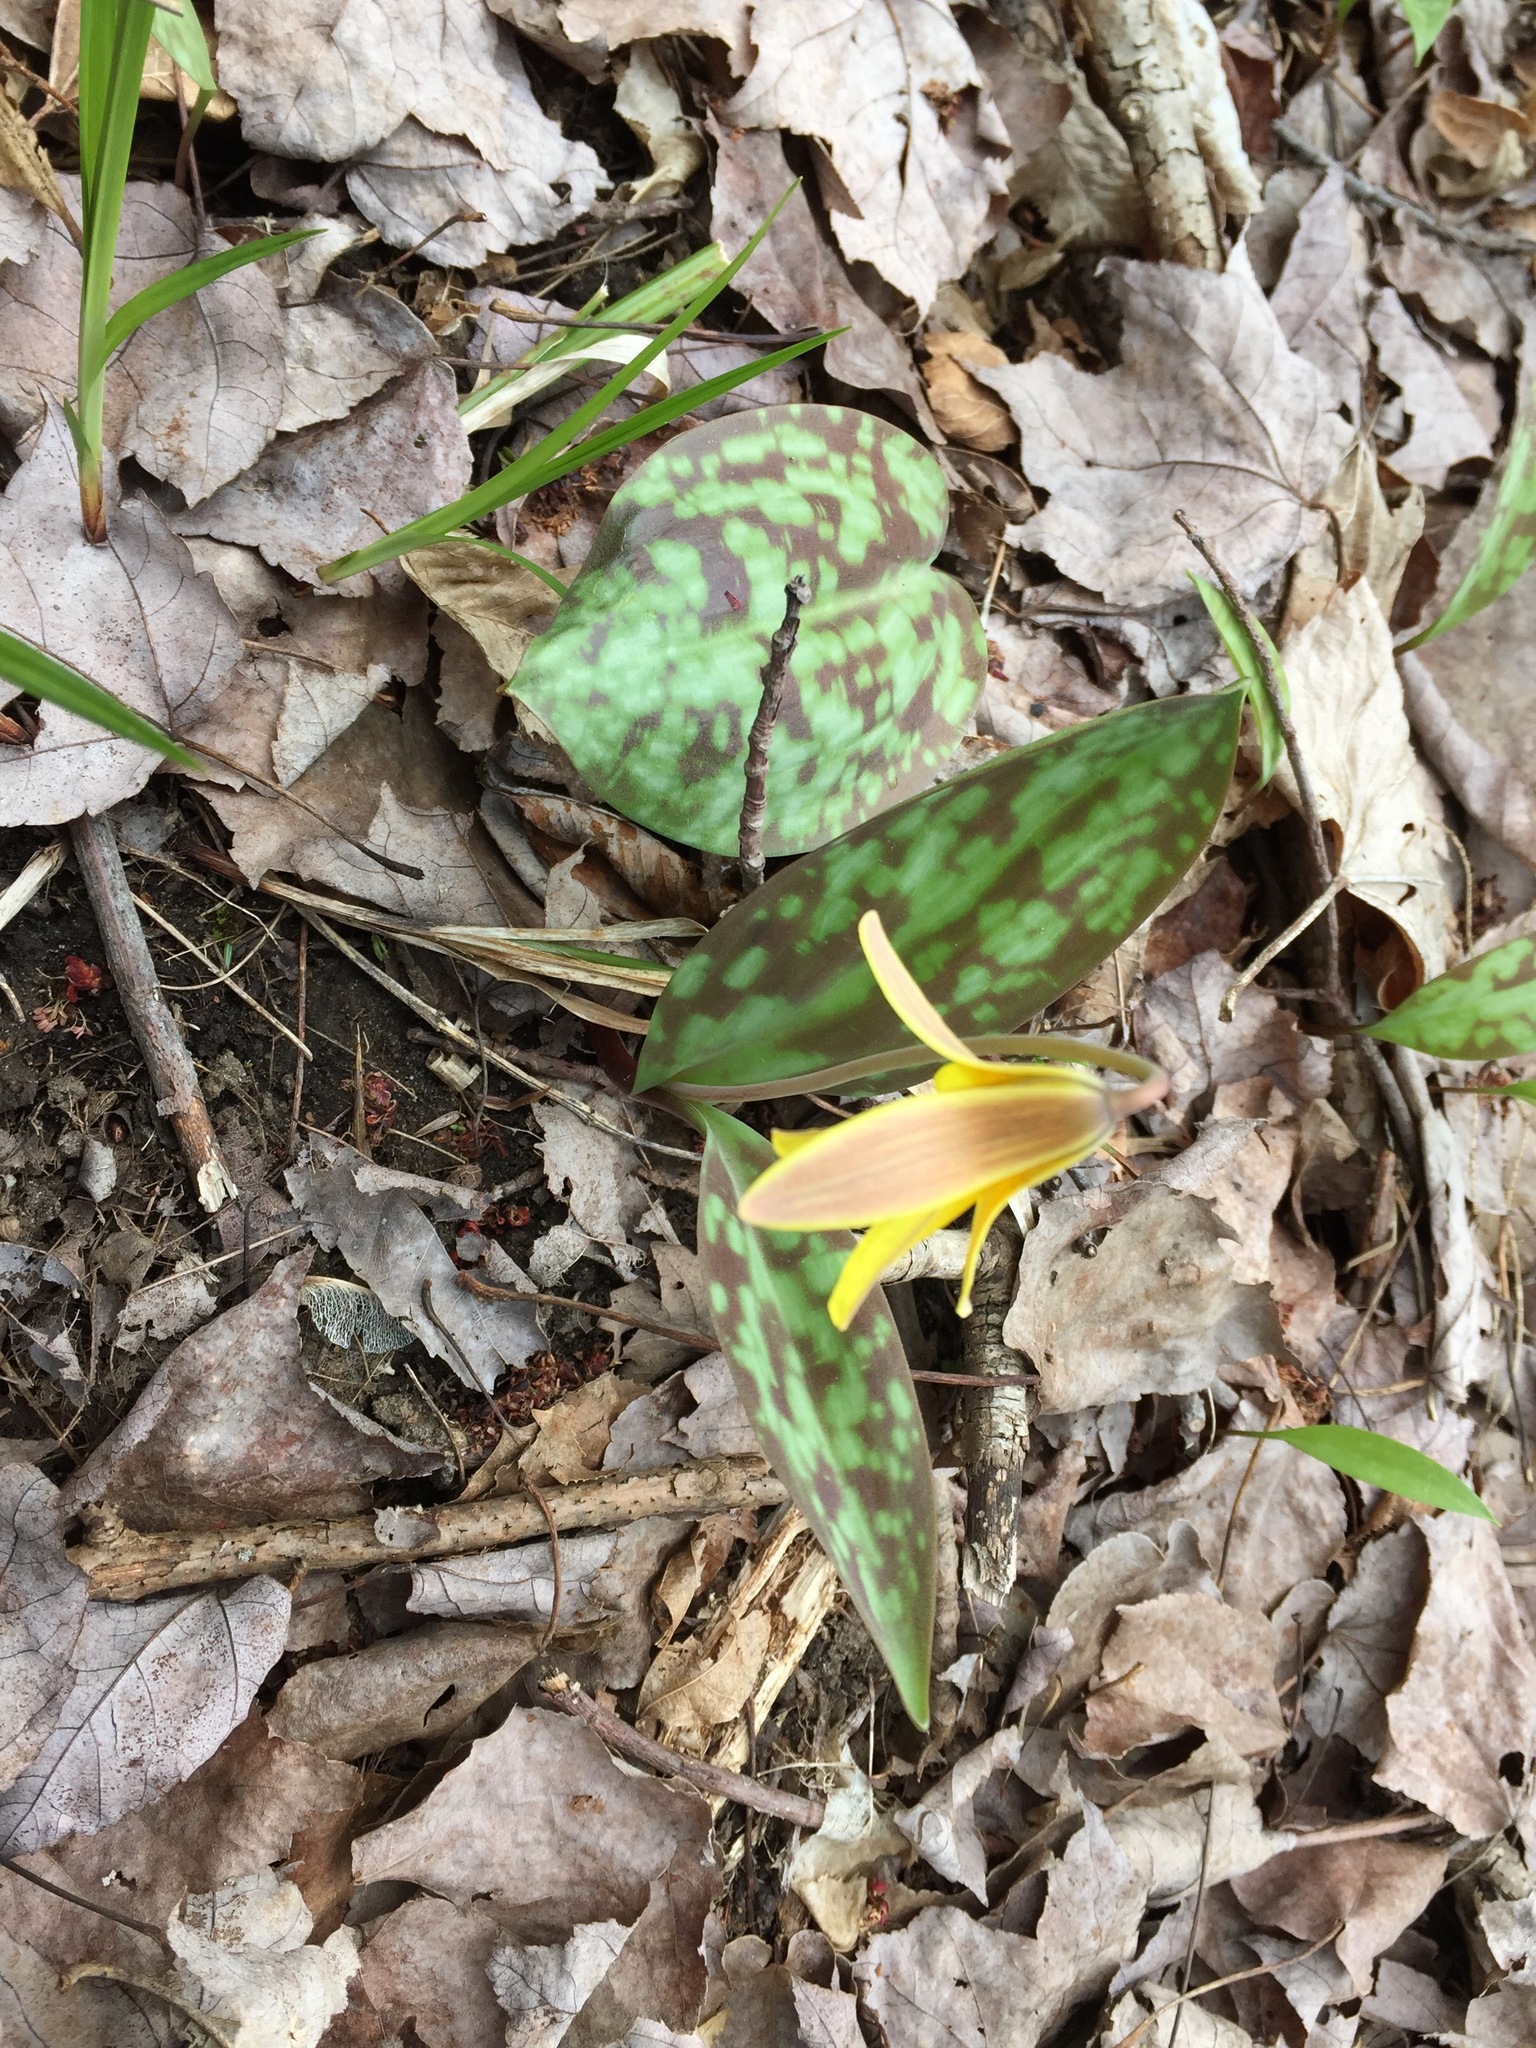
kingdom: Plantae
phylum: Tracheophyta
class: Liliopsida
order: Liliales
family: Liliaceae
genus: Erythronium
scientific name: Erythronium americanum
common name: Yellow adder's-tongue
